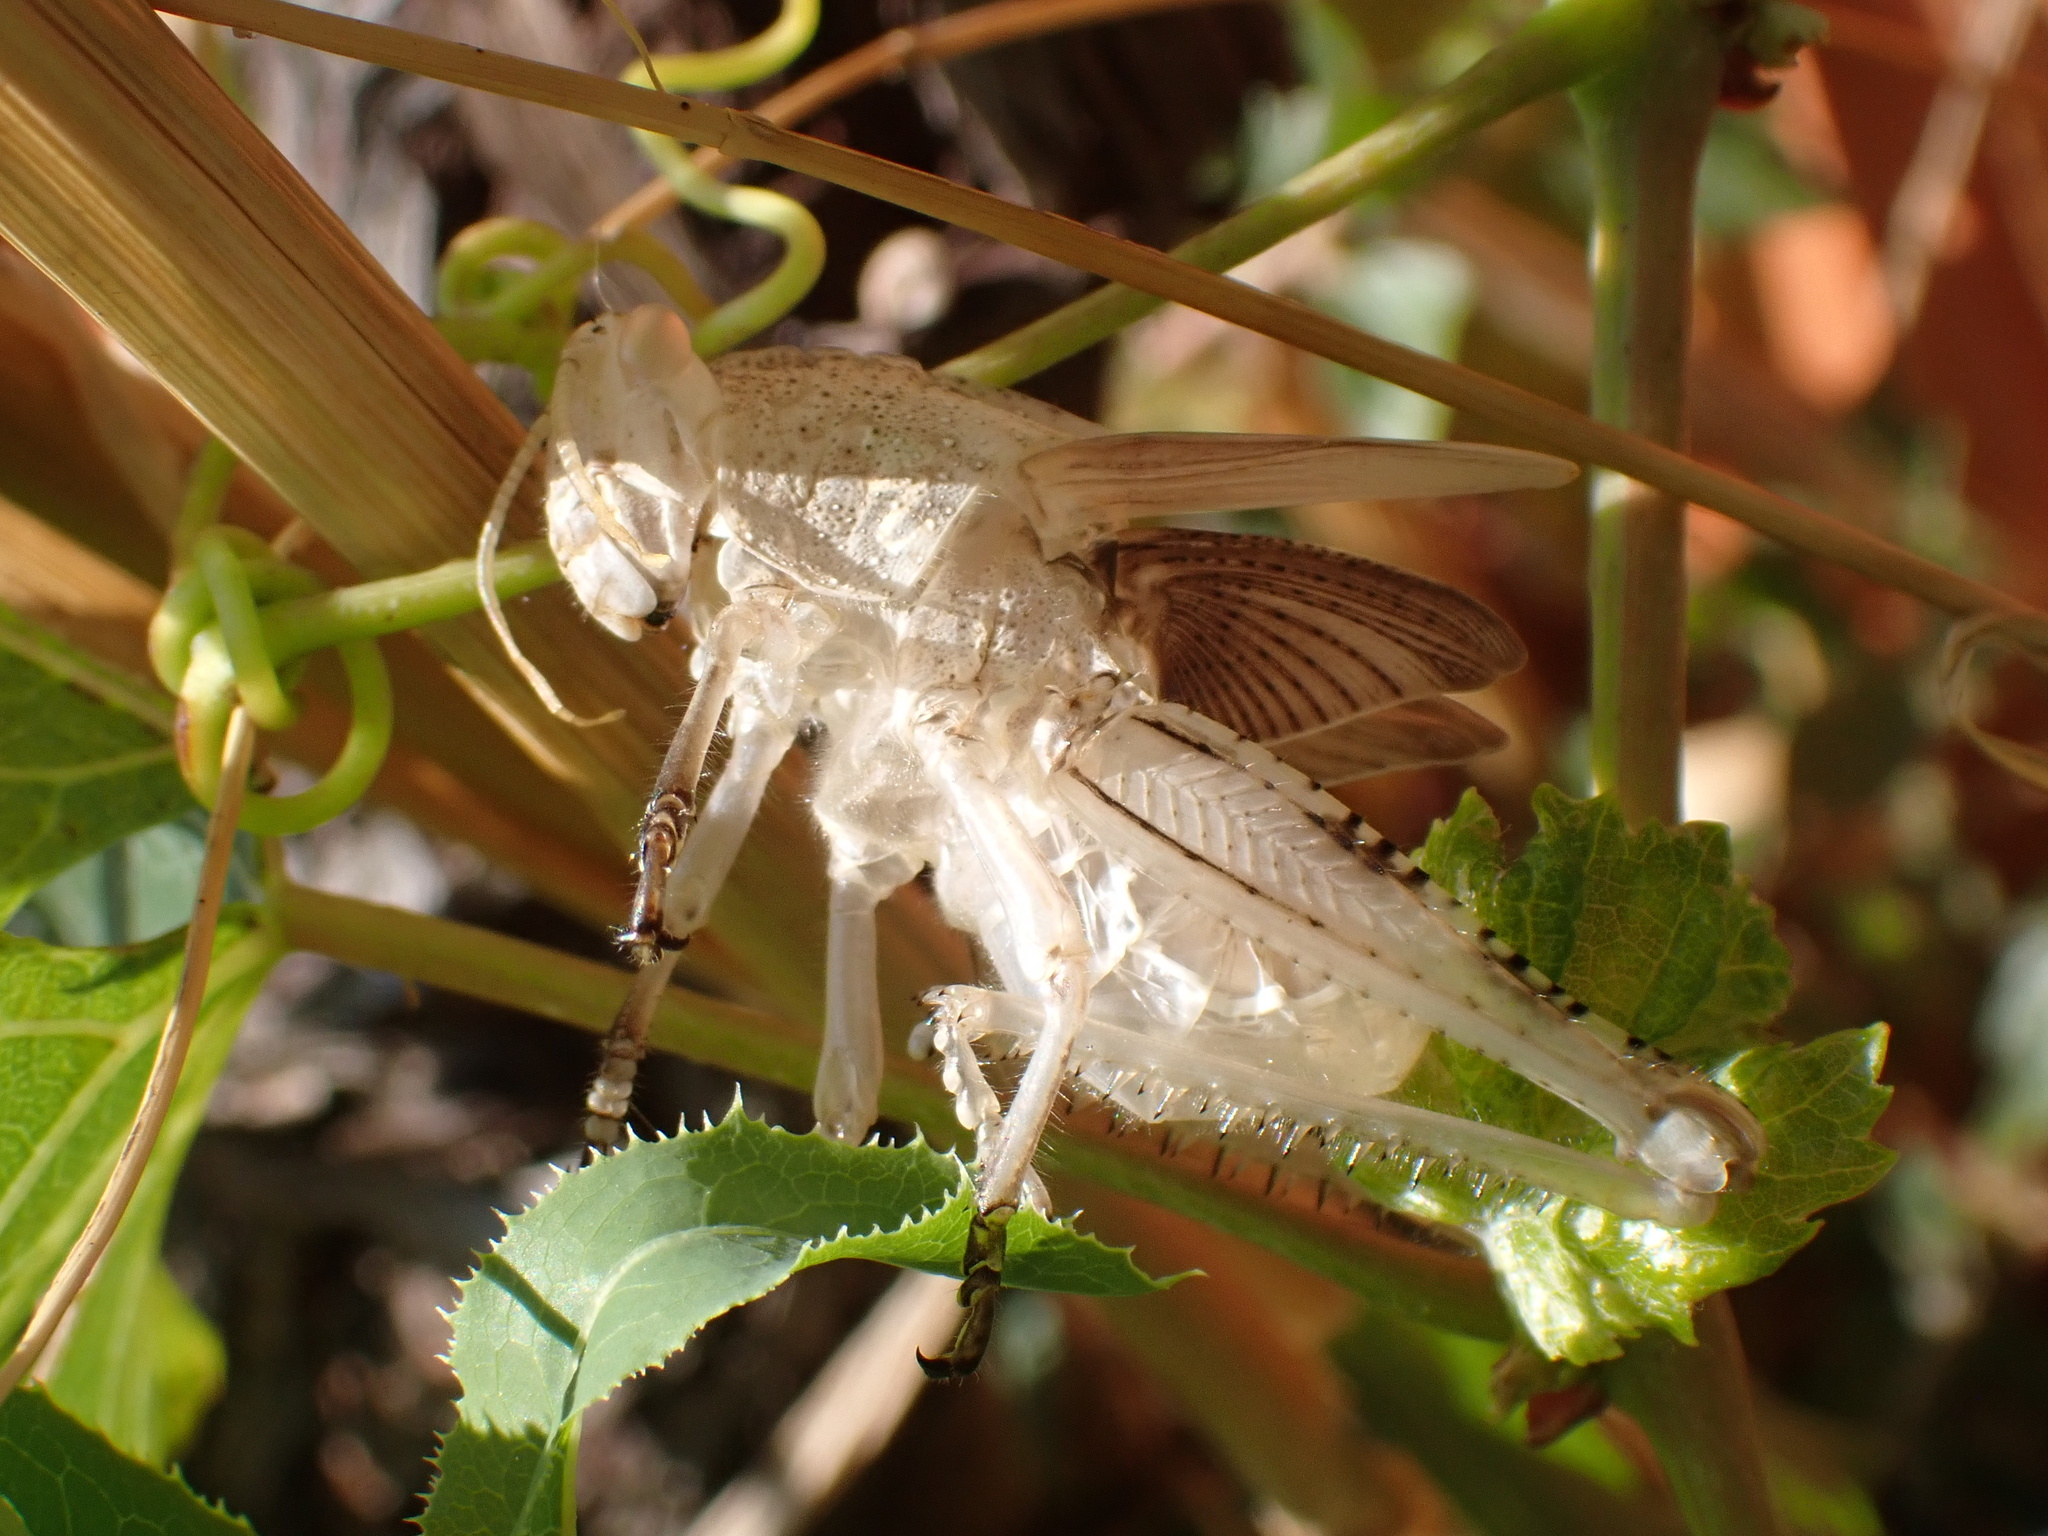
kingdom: Animalia
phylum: Arthropoda
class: Insecta
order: Orthoptera
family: Acrididae
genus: Anacridium
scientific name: Anacridium aegyptium
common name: Egyptian grasshopper
